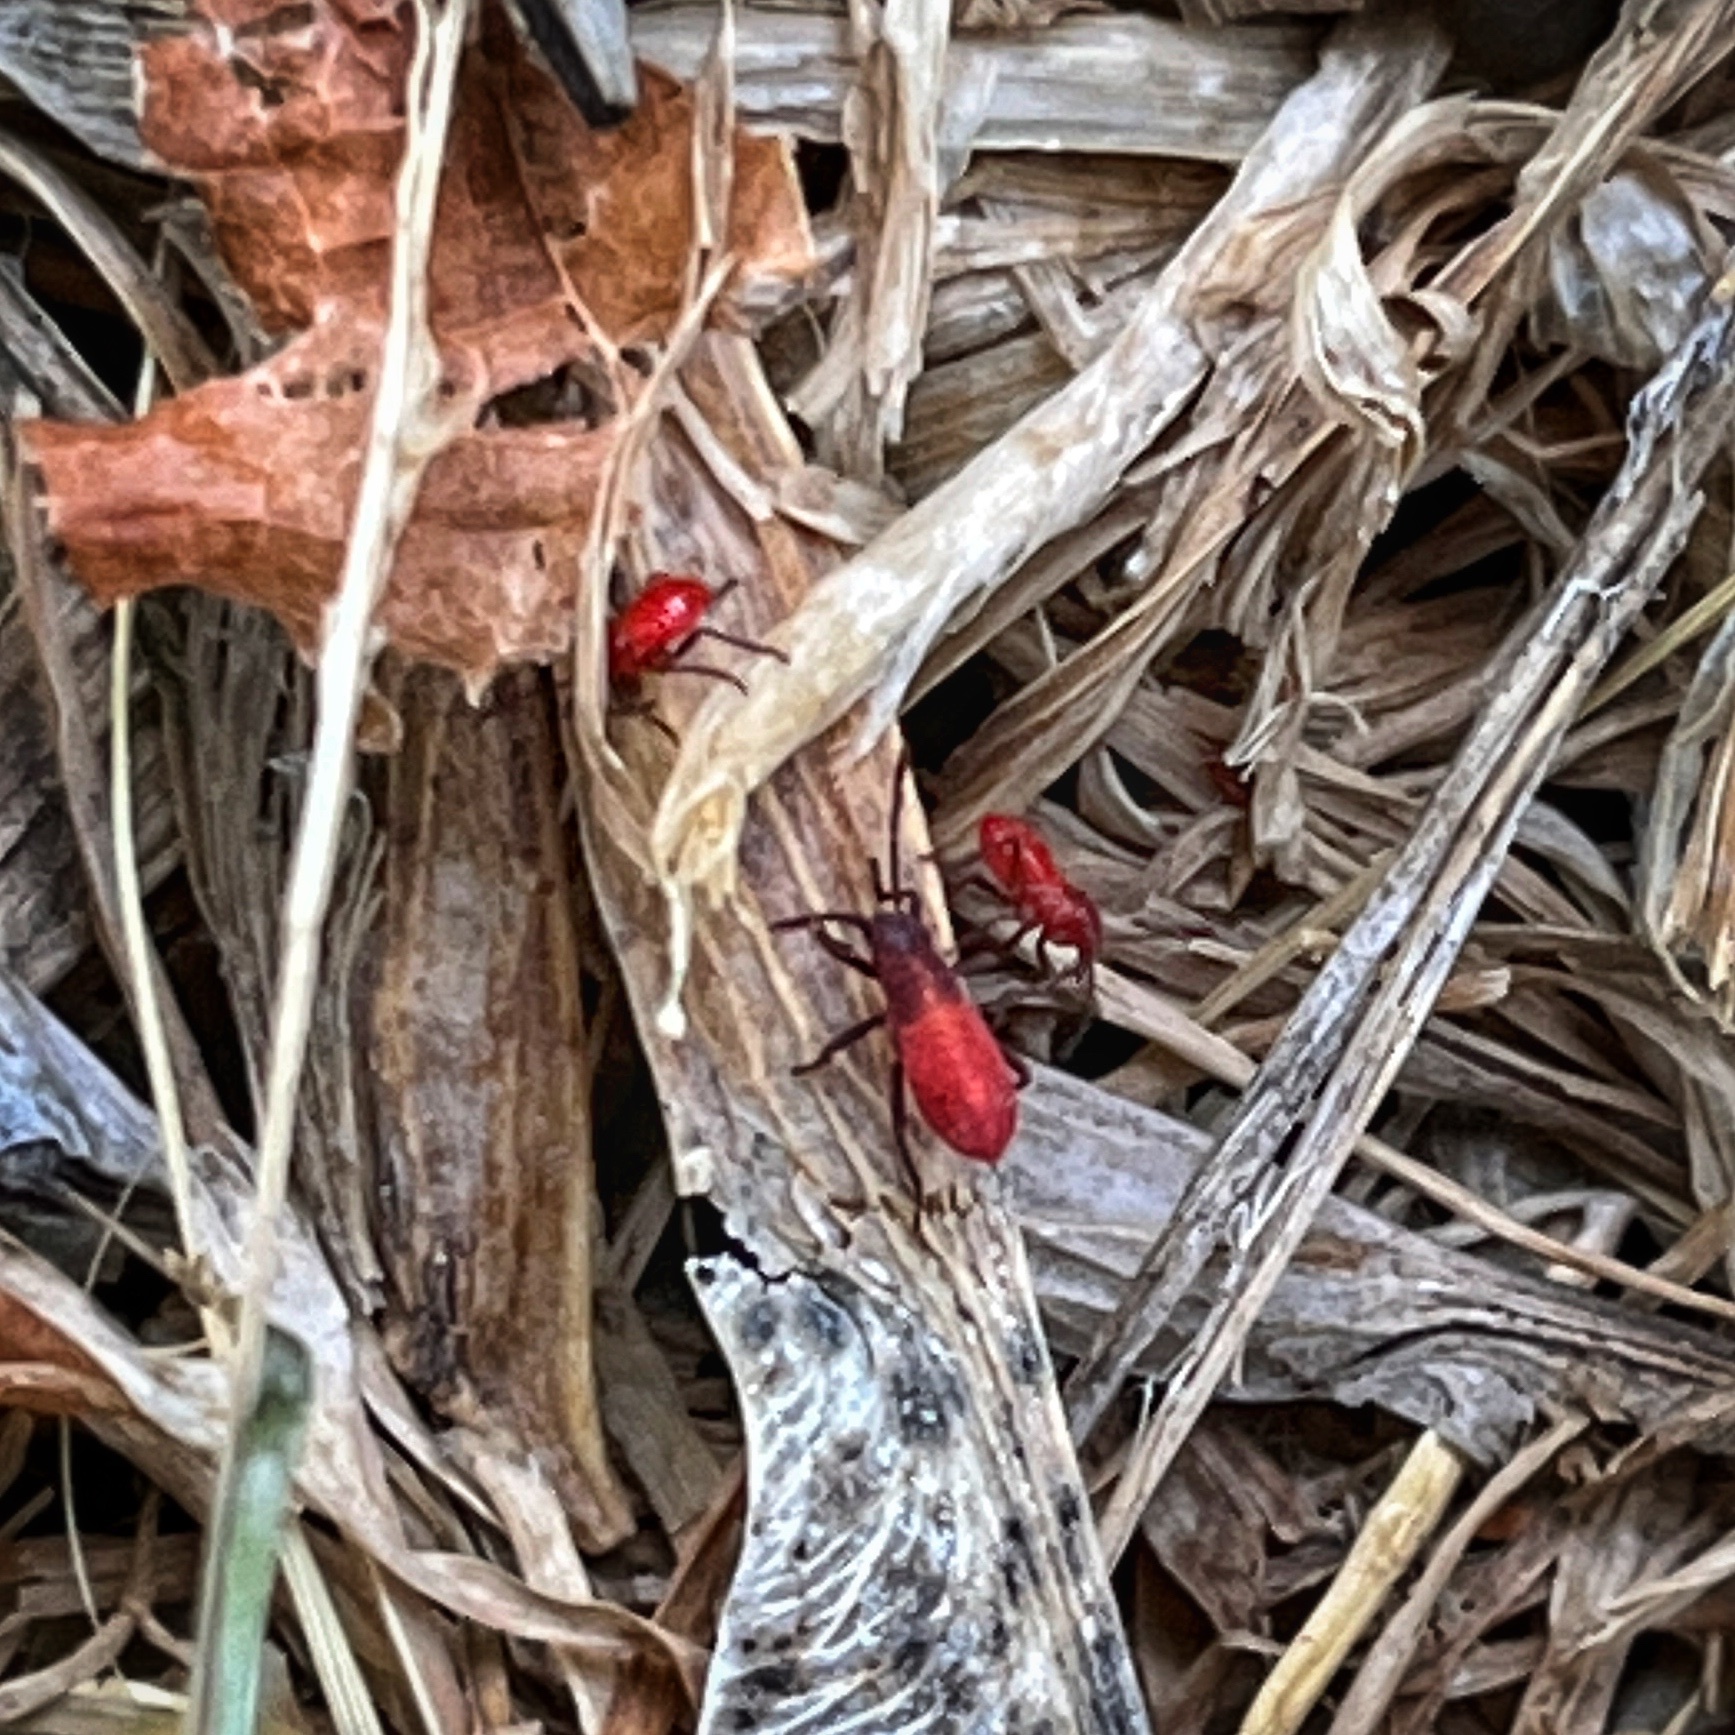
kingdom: Animalia
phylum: Arthropoda
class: Insecta
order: Hemiptera
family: Rhopalidae
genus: Boisea
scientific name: Boisea trivittata
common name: Boxelder bug
